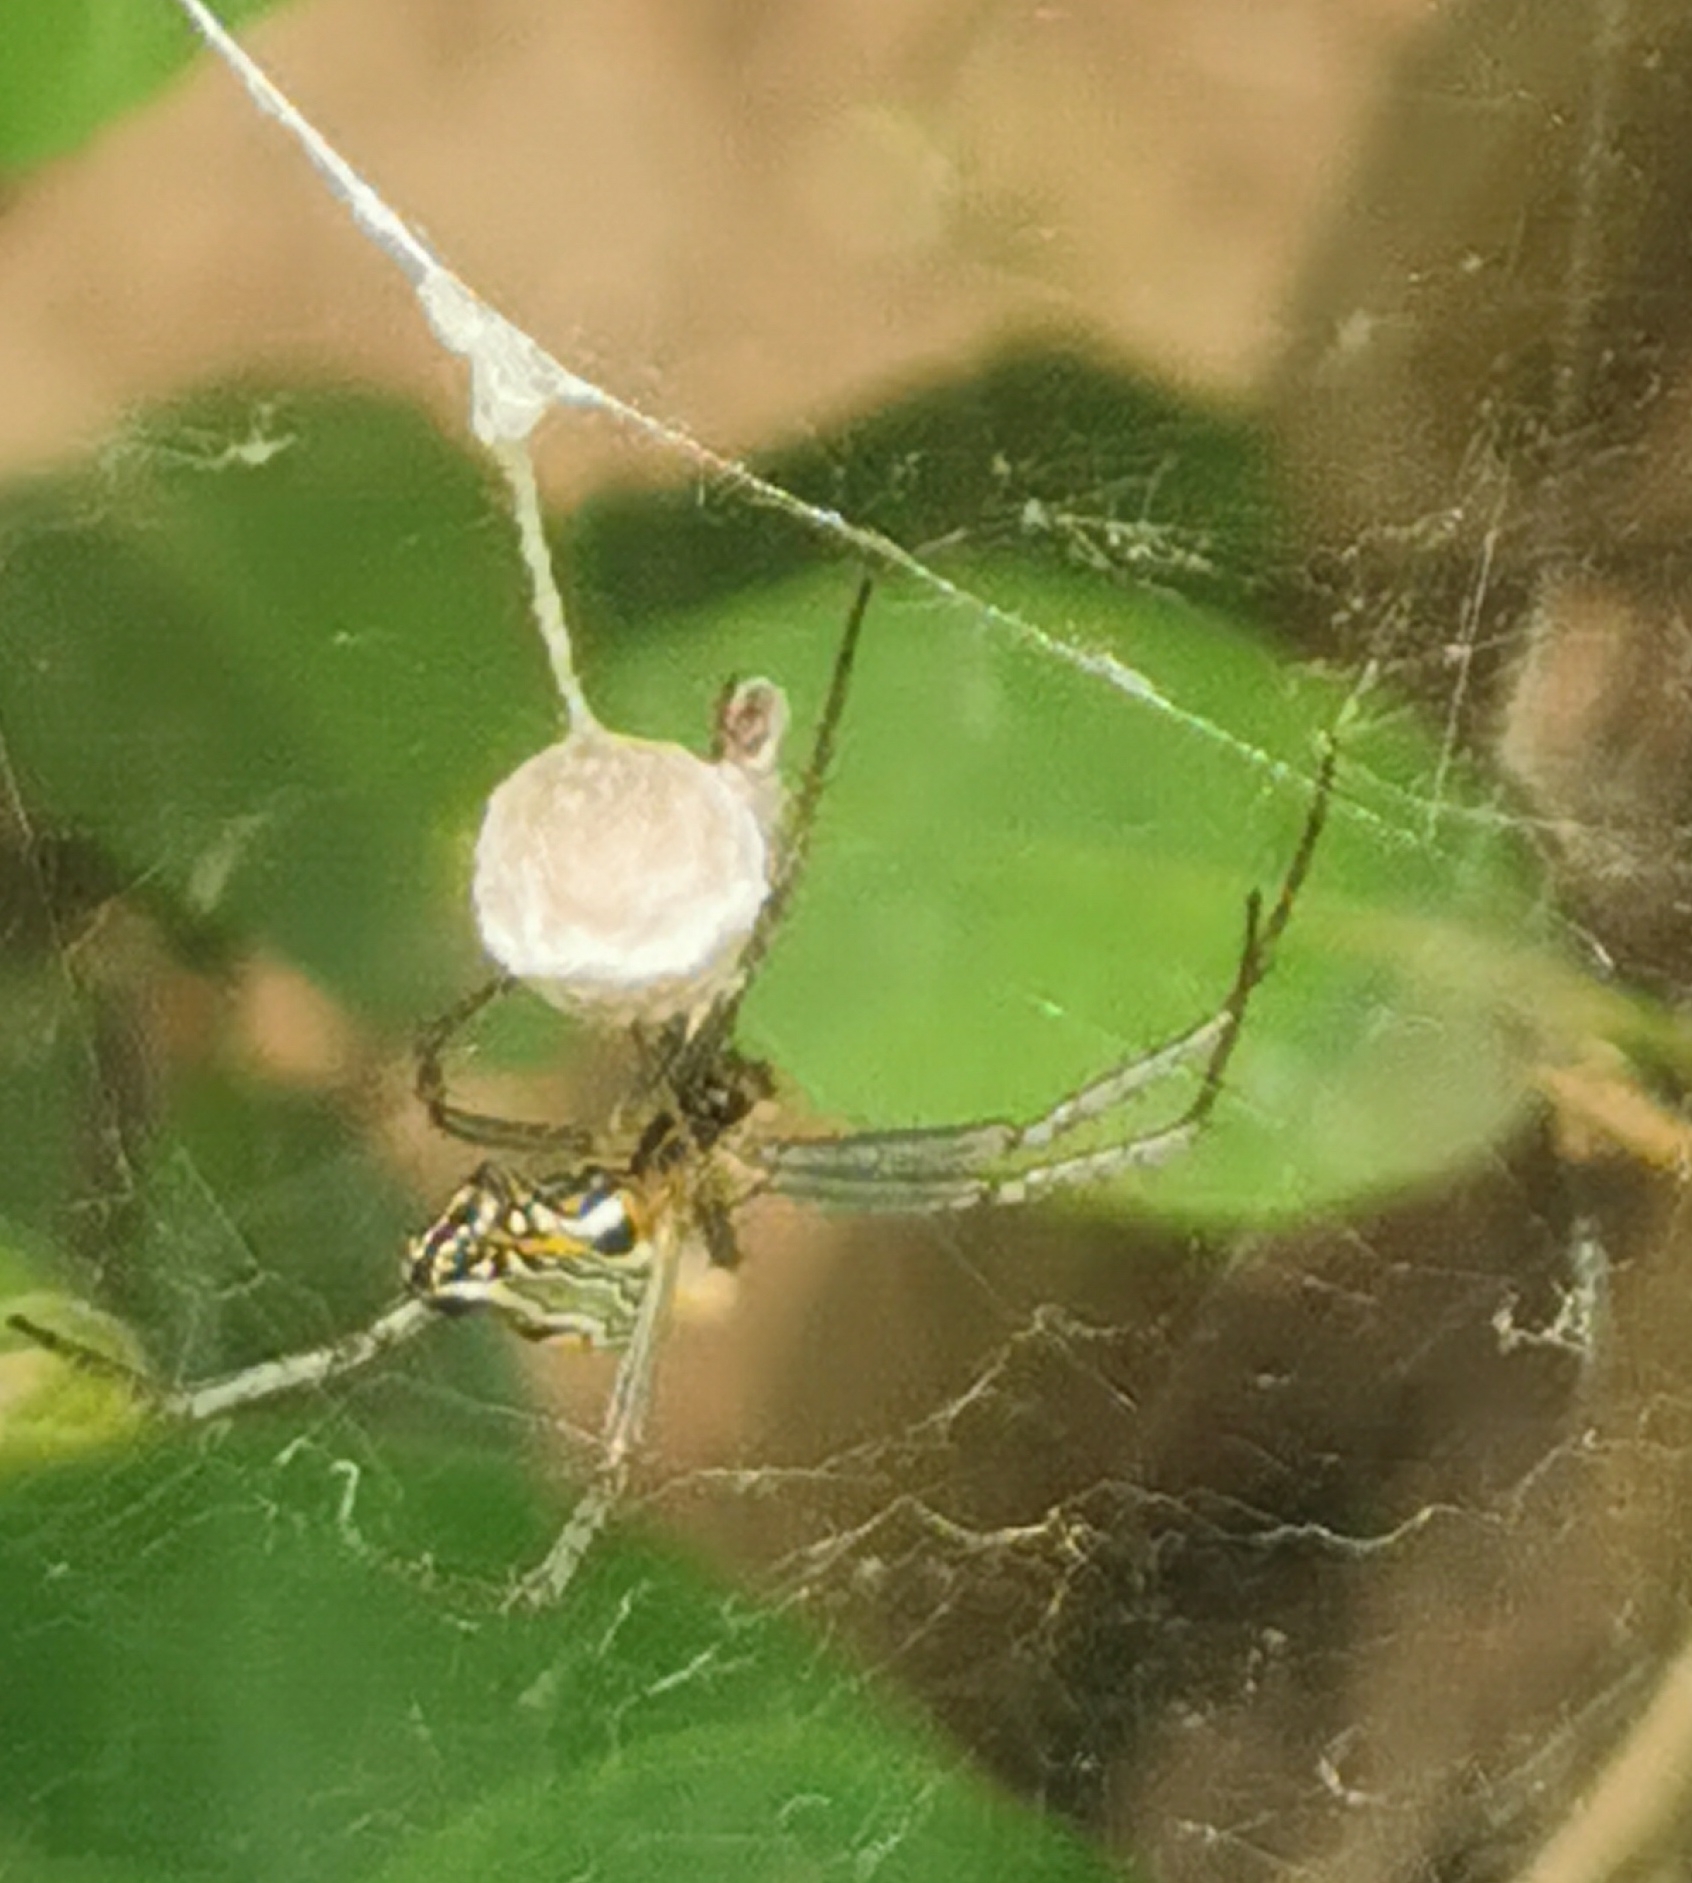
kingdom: Animalia
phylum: Arthropoda
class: Arachnida
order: Araneae
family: Araneidae
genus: Mecynogea
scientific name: Mecynogea lemniscata
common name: Orb weavers
